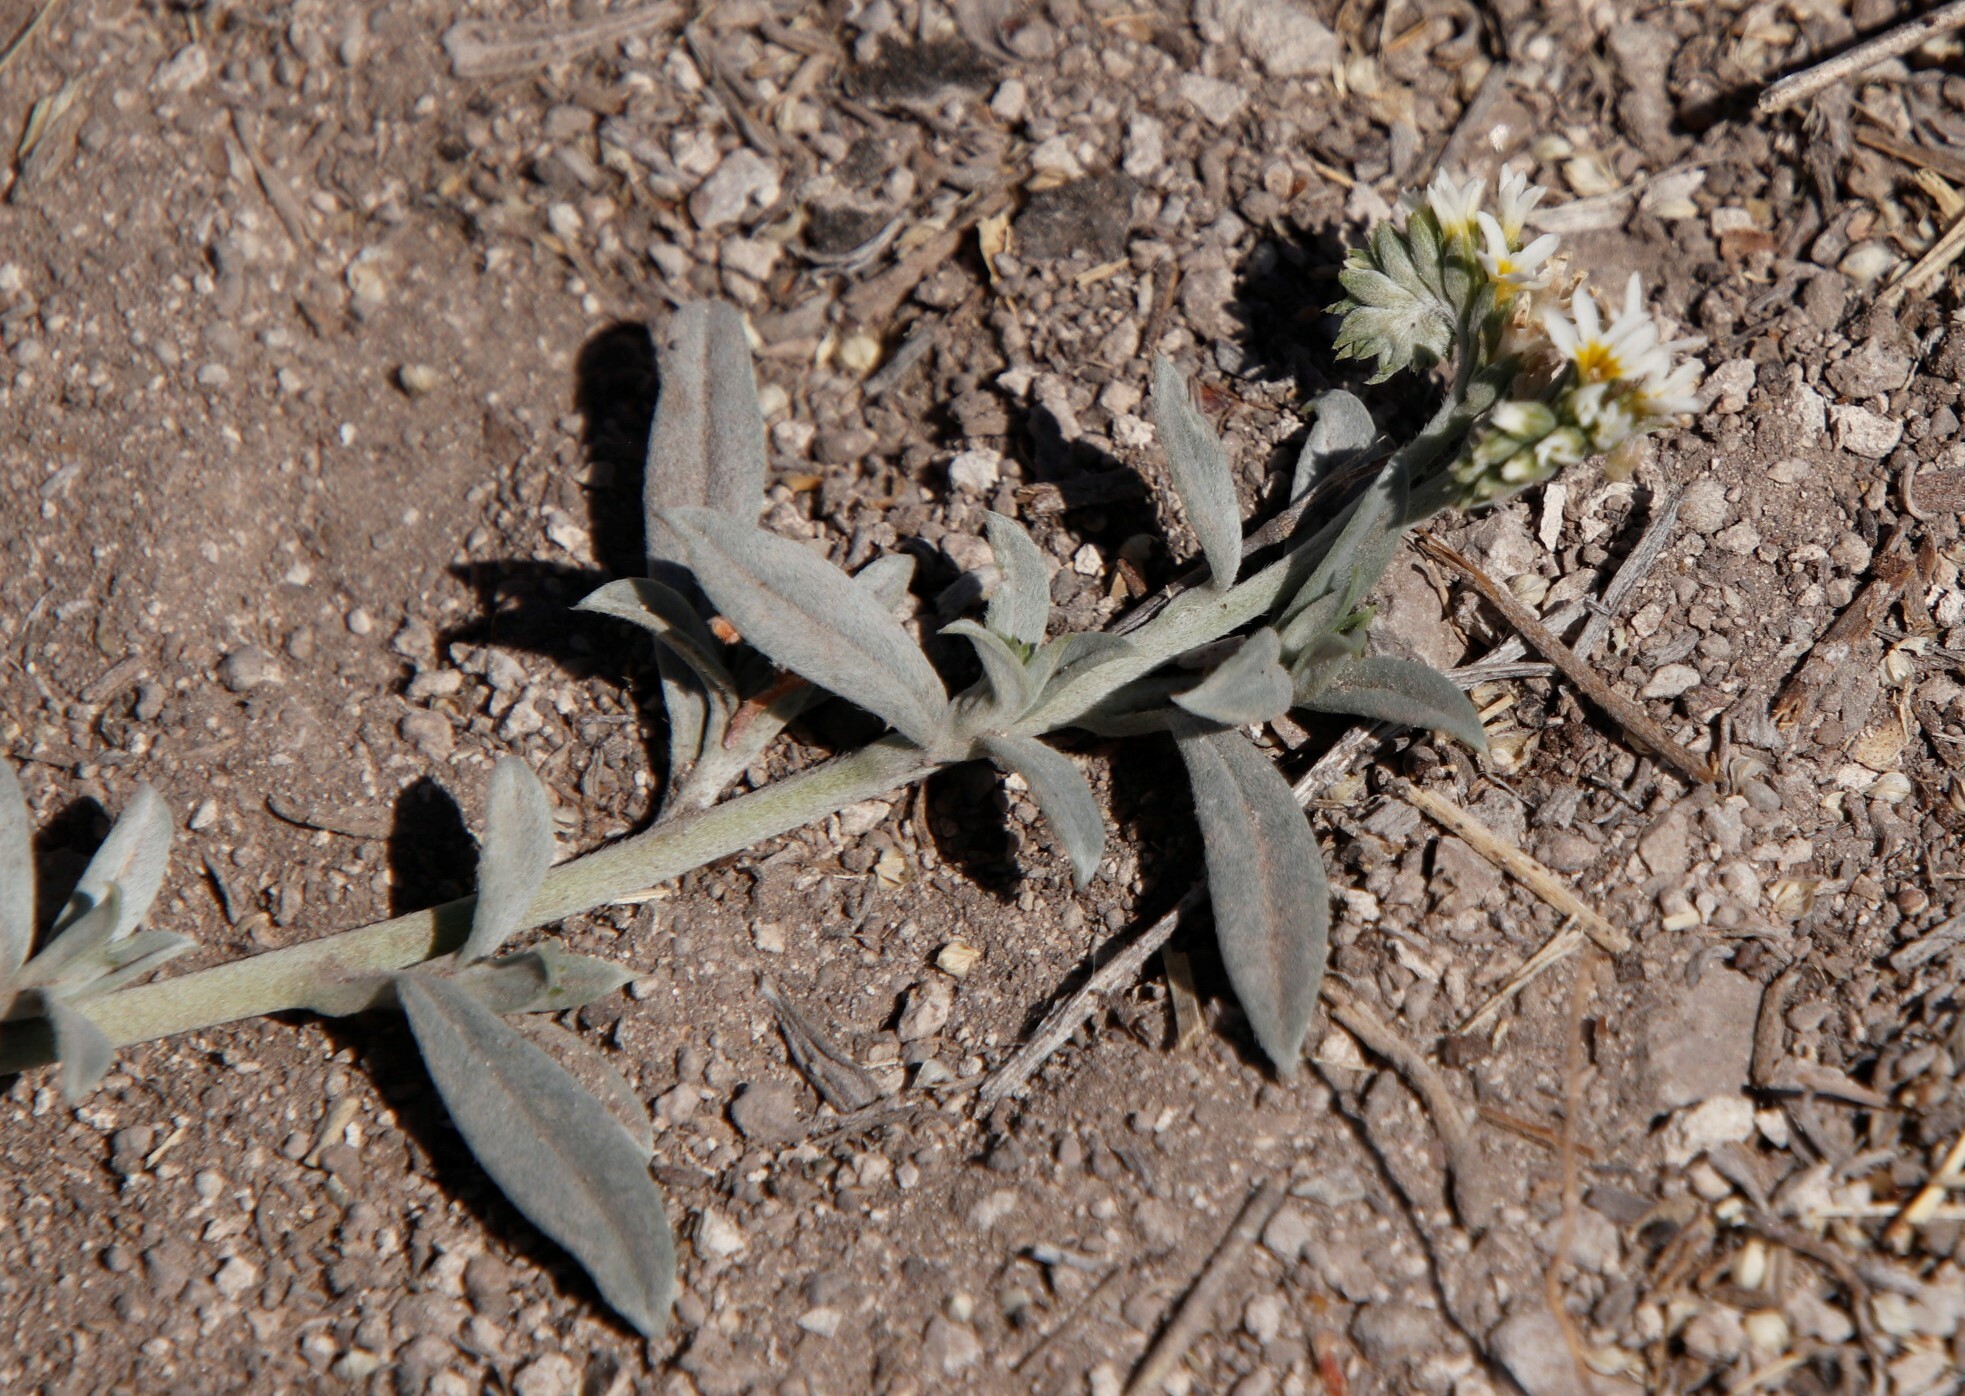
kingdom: Plantae
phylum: Tracheophyta
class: Magnoliopsida
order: Boraginales
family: Heliotropiaceae
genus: Euploca
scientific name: Euploca ovalifolia
